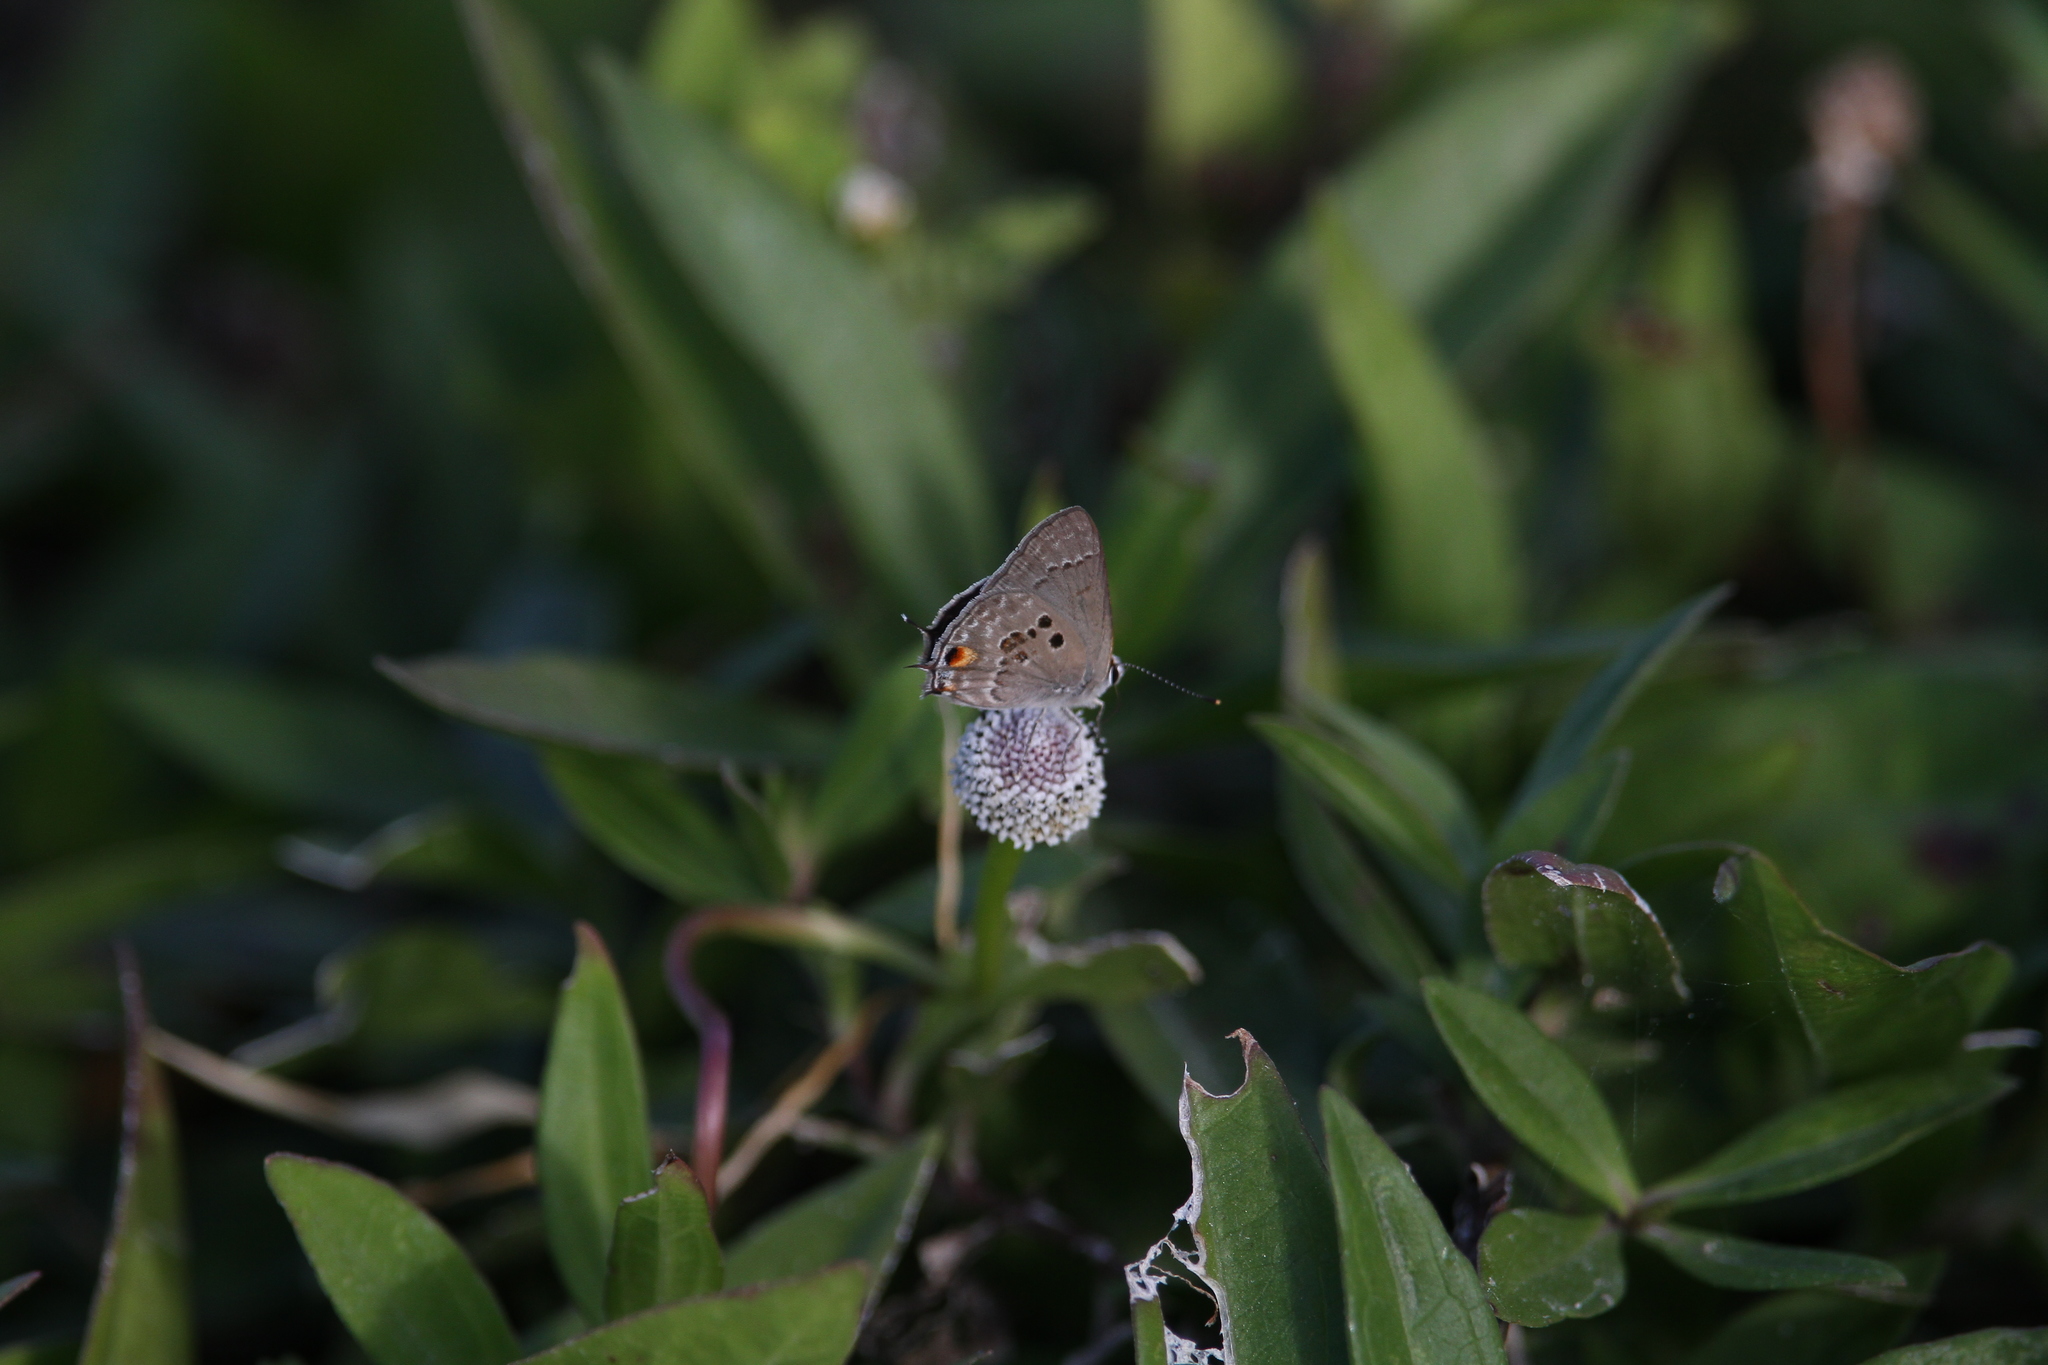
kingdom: Animalia
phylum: Arthropoda
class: Insecta
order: Lepidoptera
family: Lycaenidae
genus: Callicista
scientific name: Callicista columella
